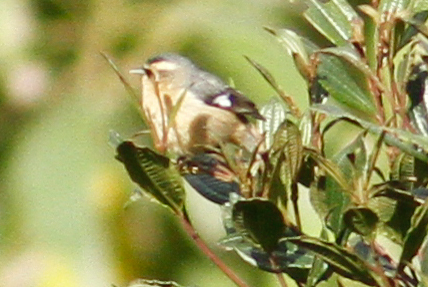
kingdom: Animalia
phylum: Chordata
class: Aves
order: Passeriformes
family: Thraupidae
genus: Conirostrum
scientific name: Conirostrum cinereum
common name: Cinereous conebill
